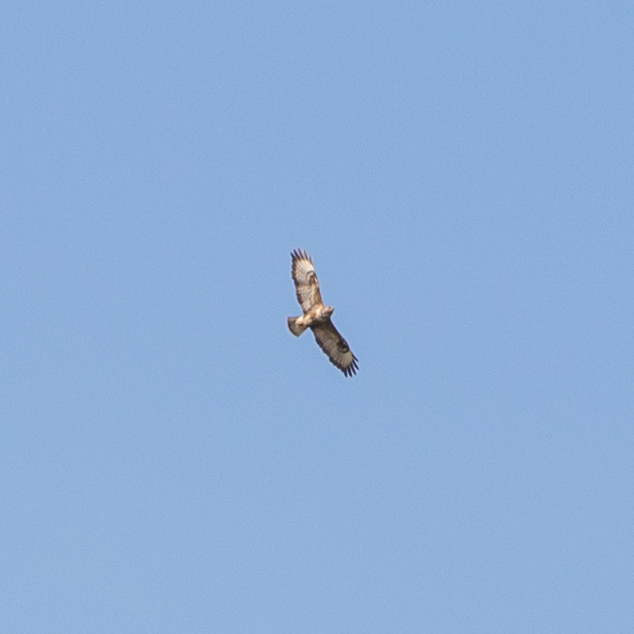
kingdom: Animalia
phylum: Chordata
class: Aves
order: Accipitriformes
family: Accipitridae
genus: Buteo
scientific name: Buteo buteo
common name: Common buzzard
